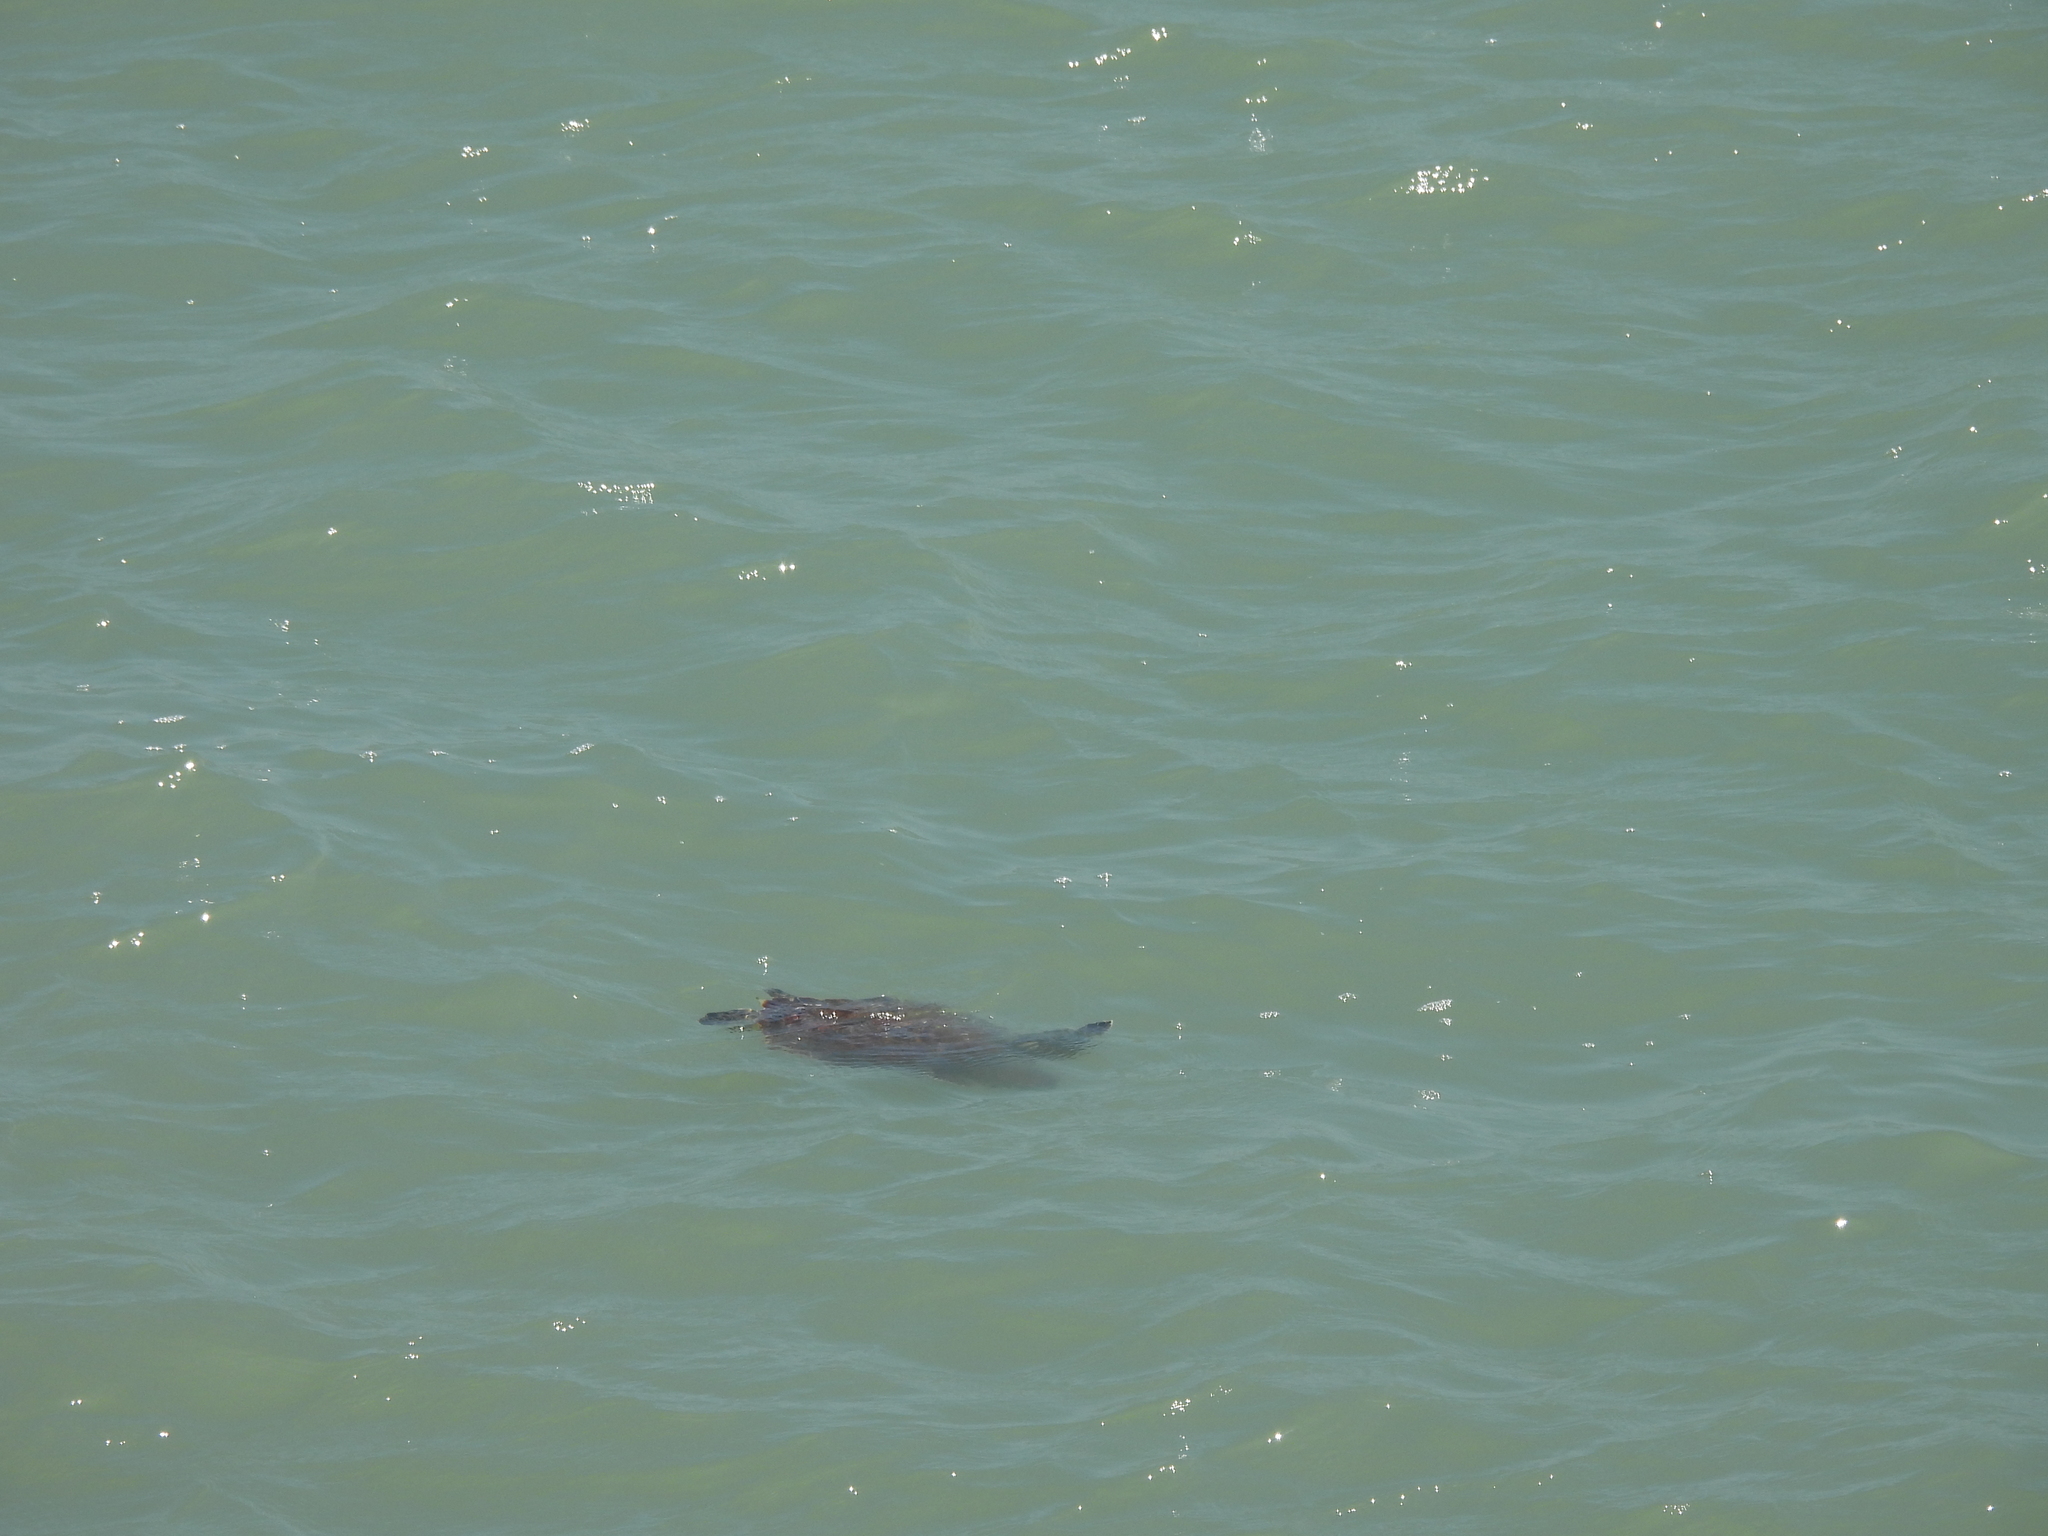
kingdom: Animalia
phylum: Chordata
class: Testudines
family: Cheloniidae
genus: Chelonia
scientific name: Chelonia mydas
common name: Green turtle
